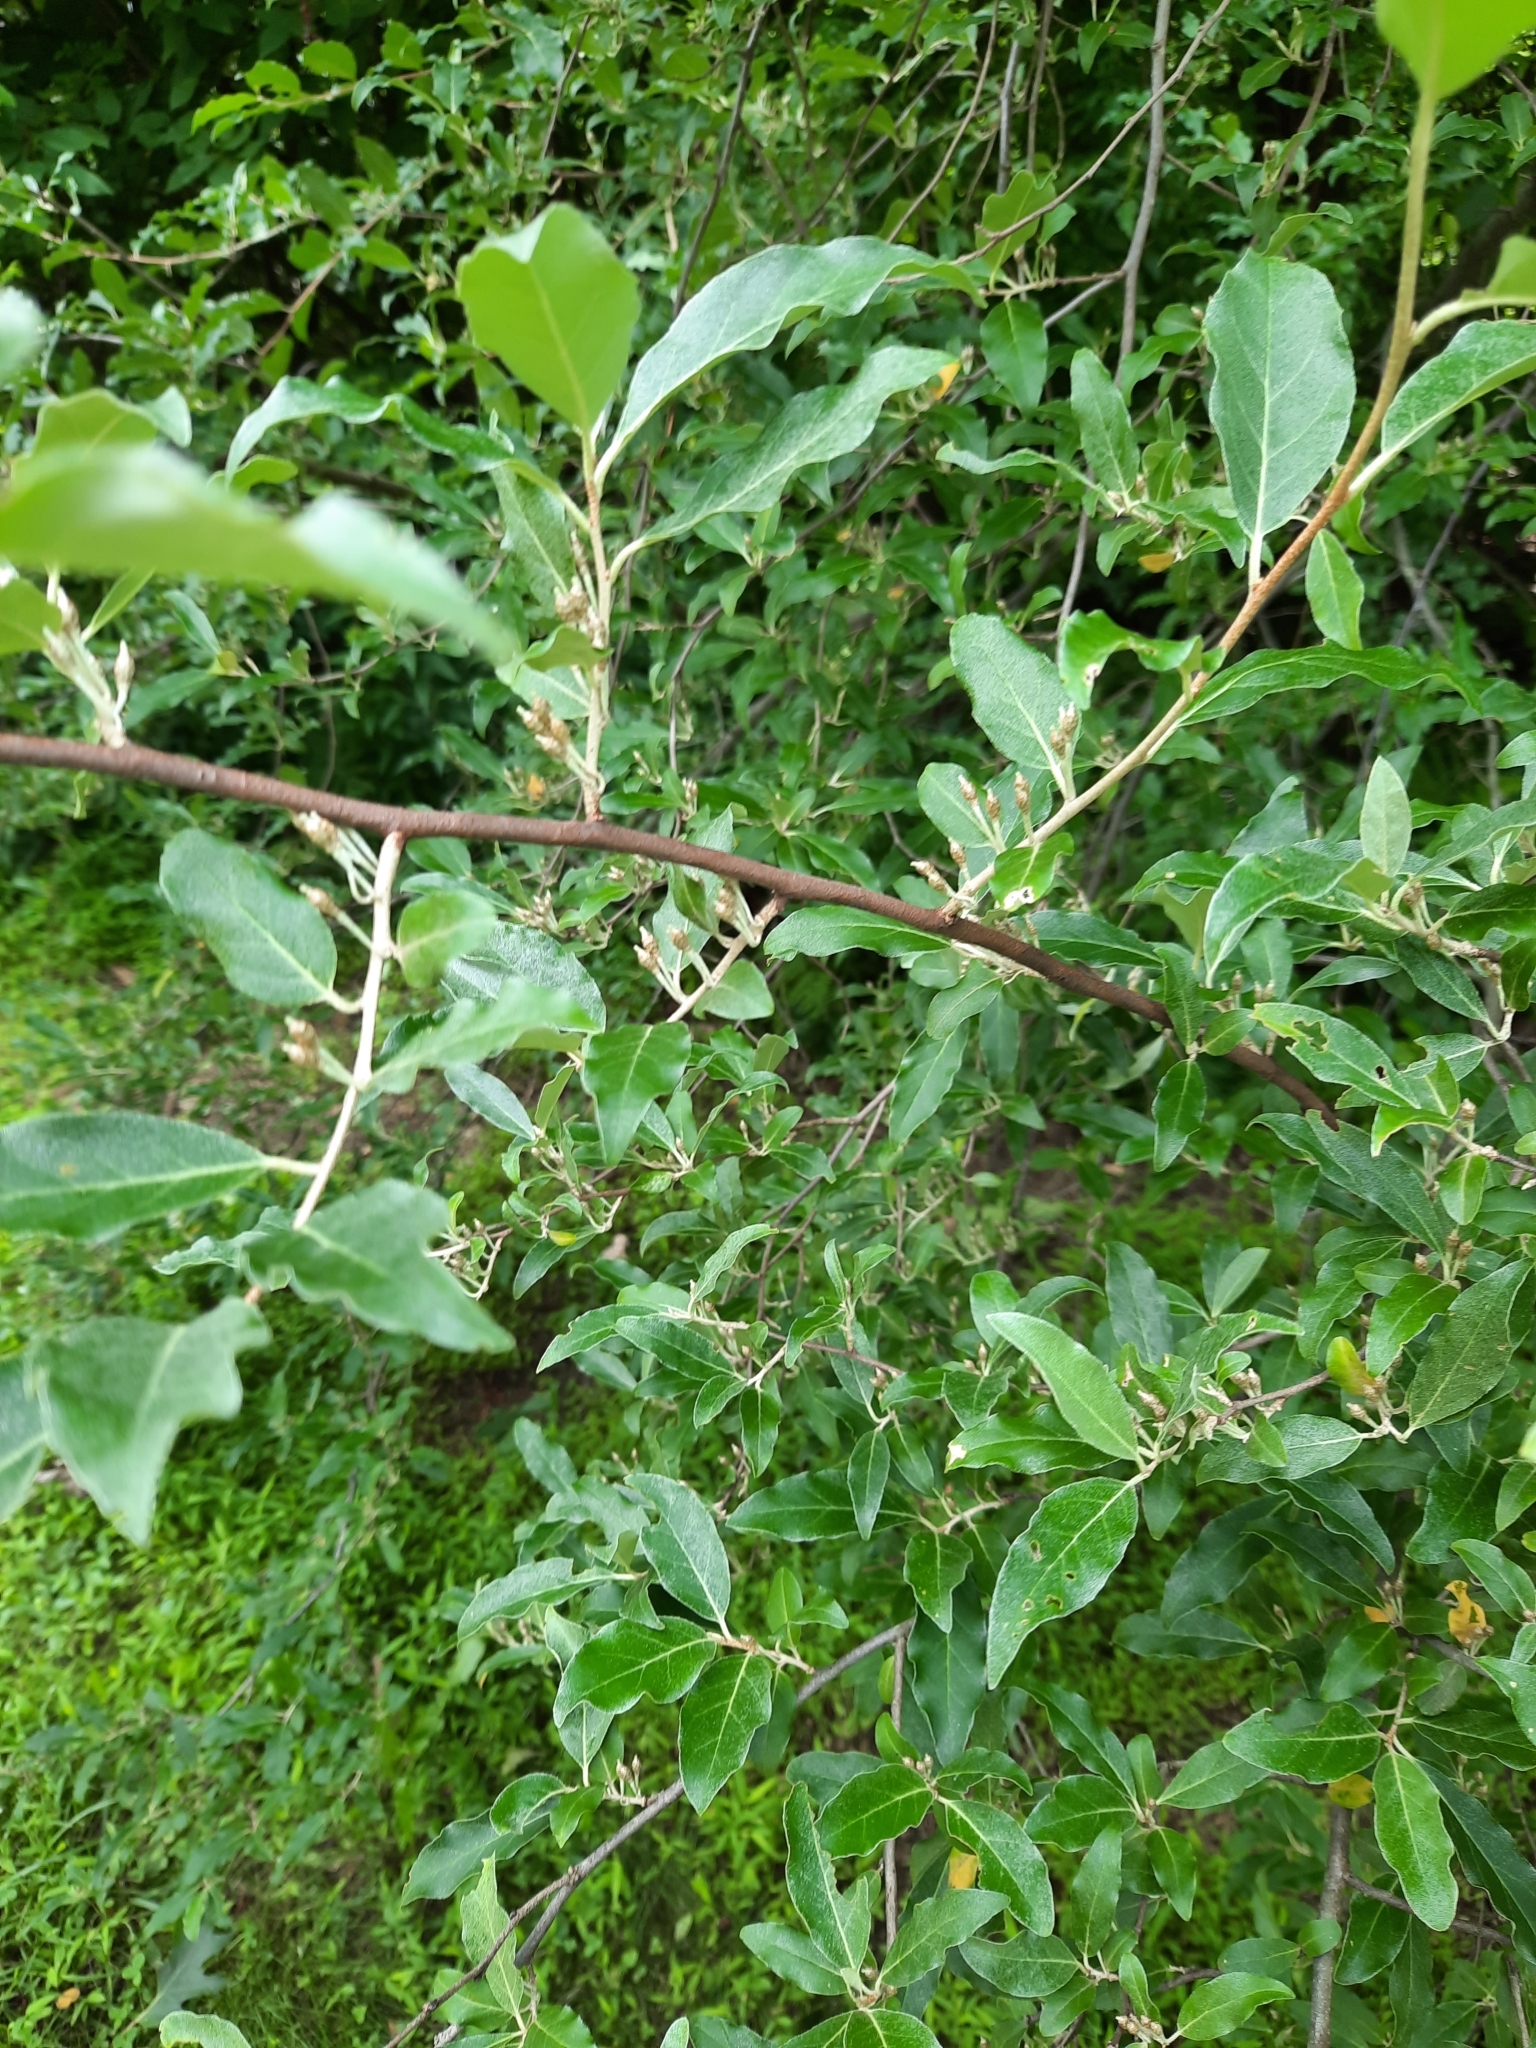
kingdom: Plantae
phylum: Tracheophyta
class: Magnoliopsida
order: Rosales
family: Elaeagnaceae
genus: Elaeagnus
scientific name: Elaeagnus umbellata
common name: Autumn olive
